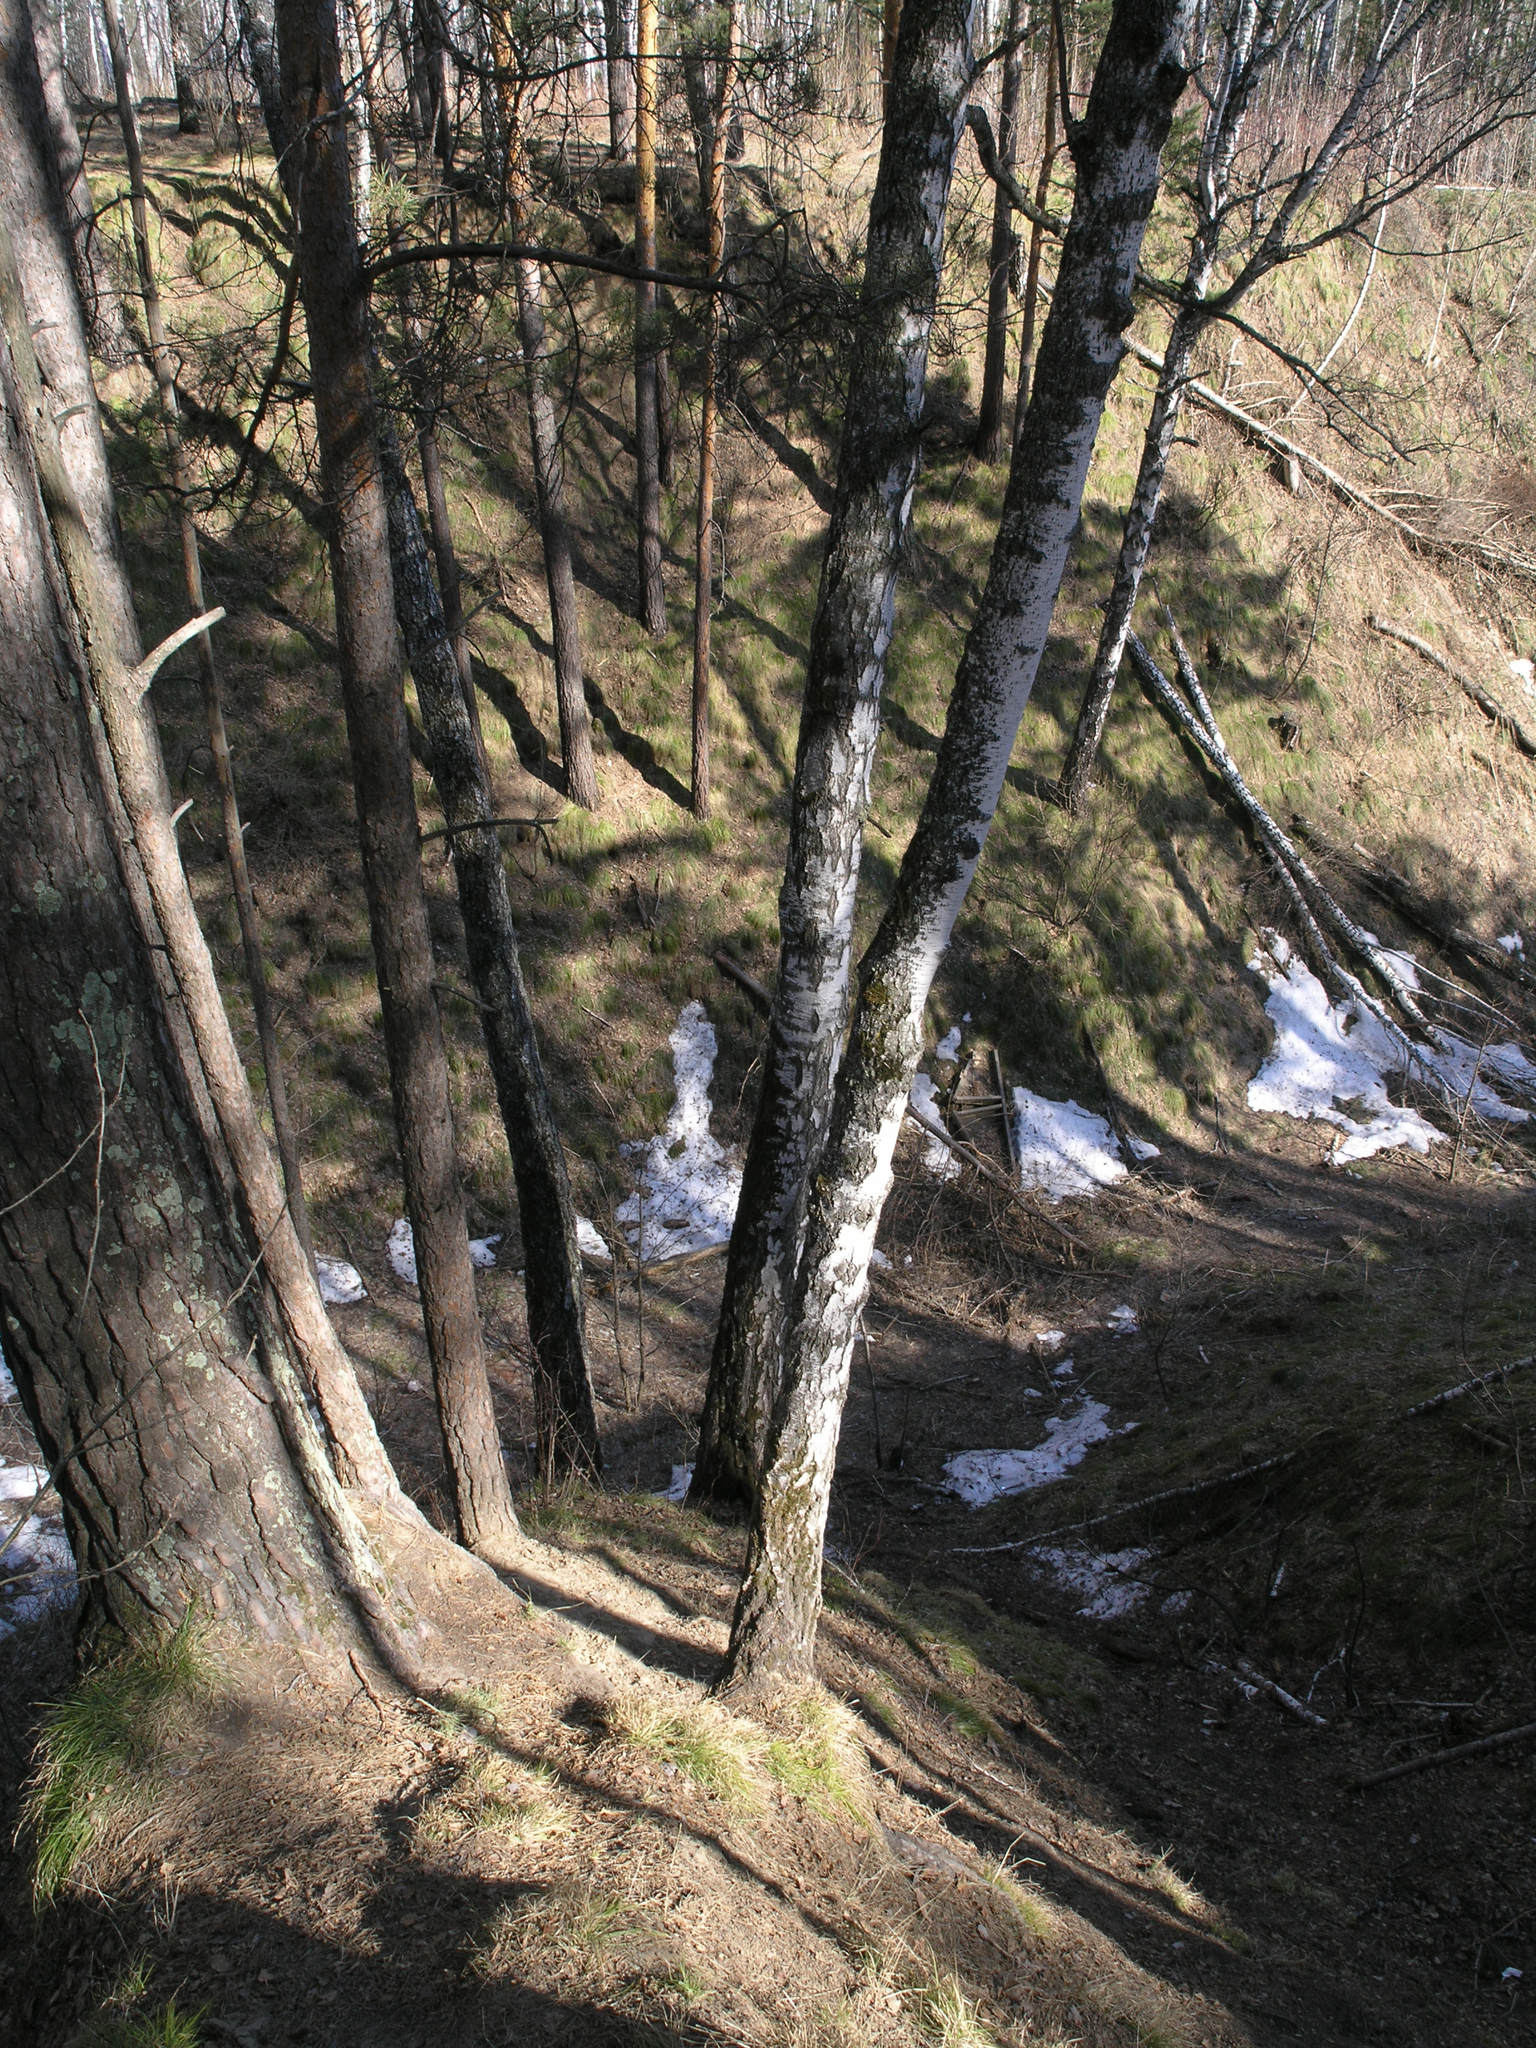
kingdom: Plantae
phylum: Tracheophyta
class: Pinopsida
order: Pinales
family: Pinaceae
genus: Pinus
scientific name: Pinus sylvestris
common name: Scots pine
